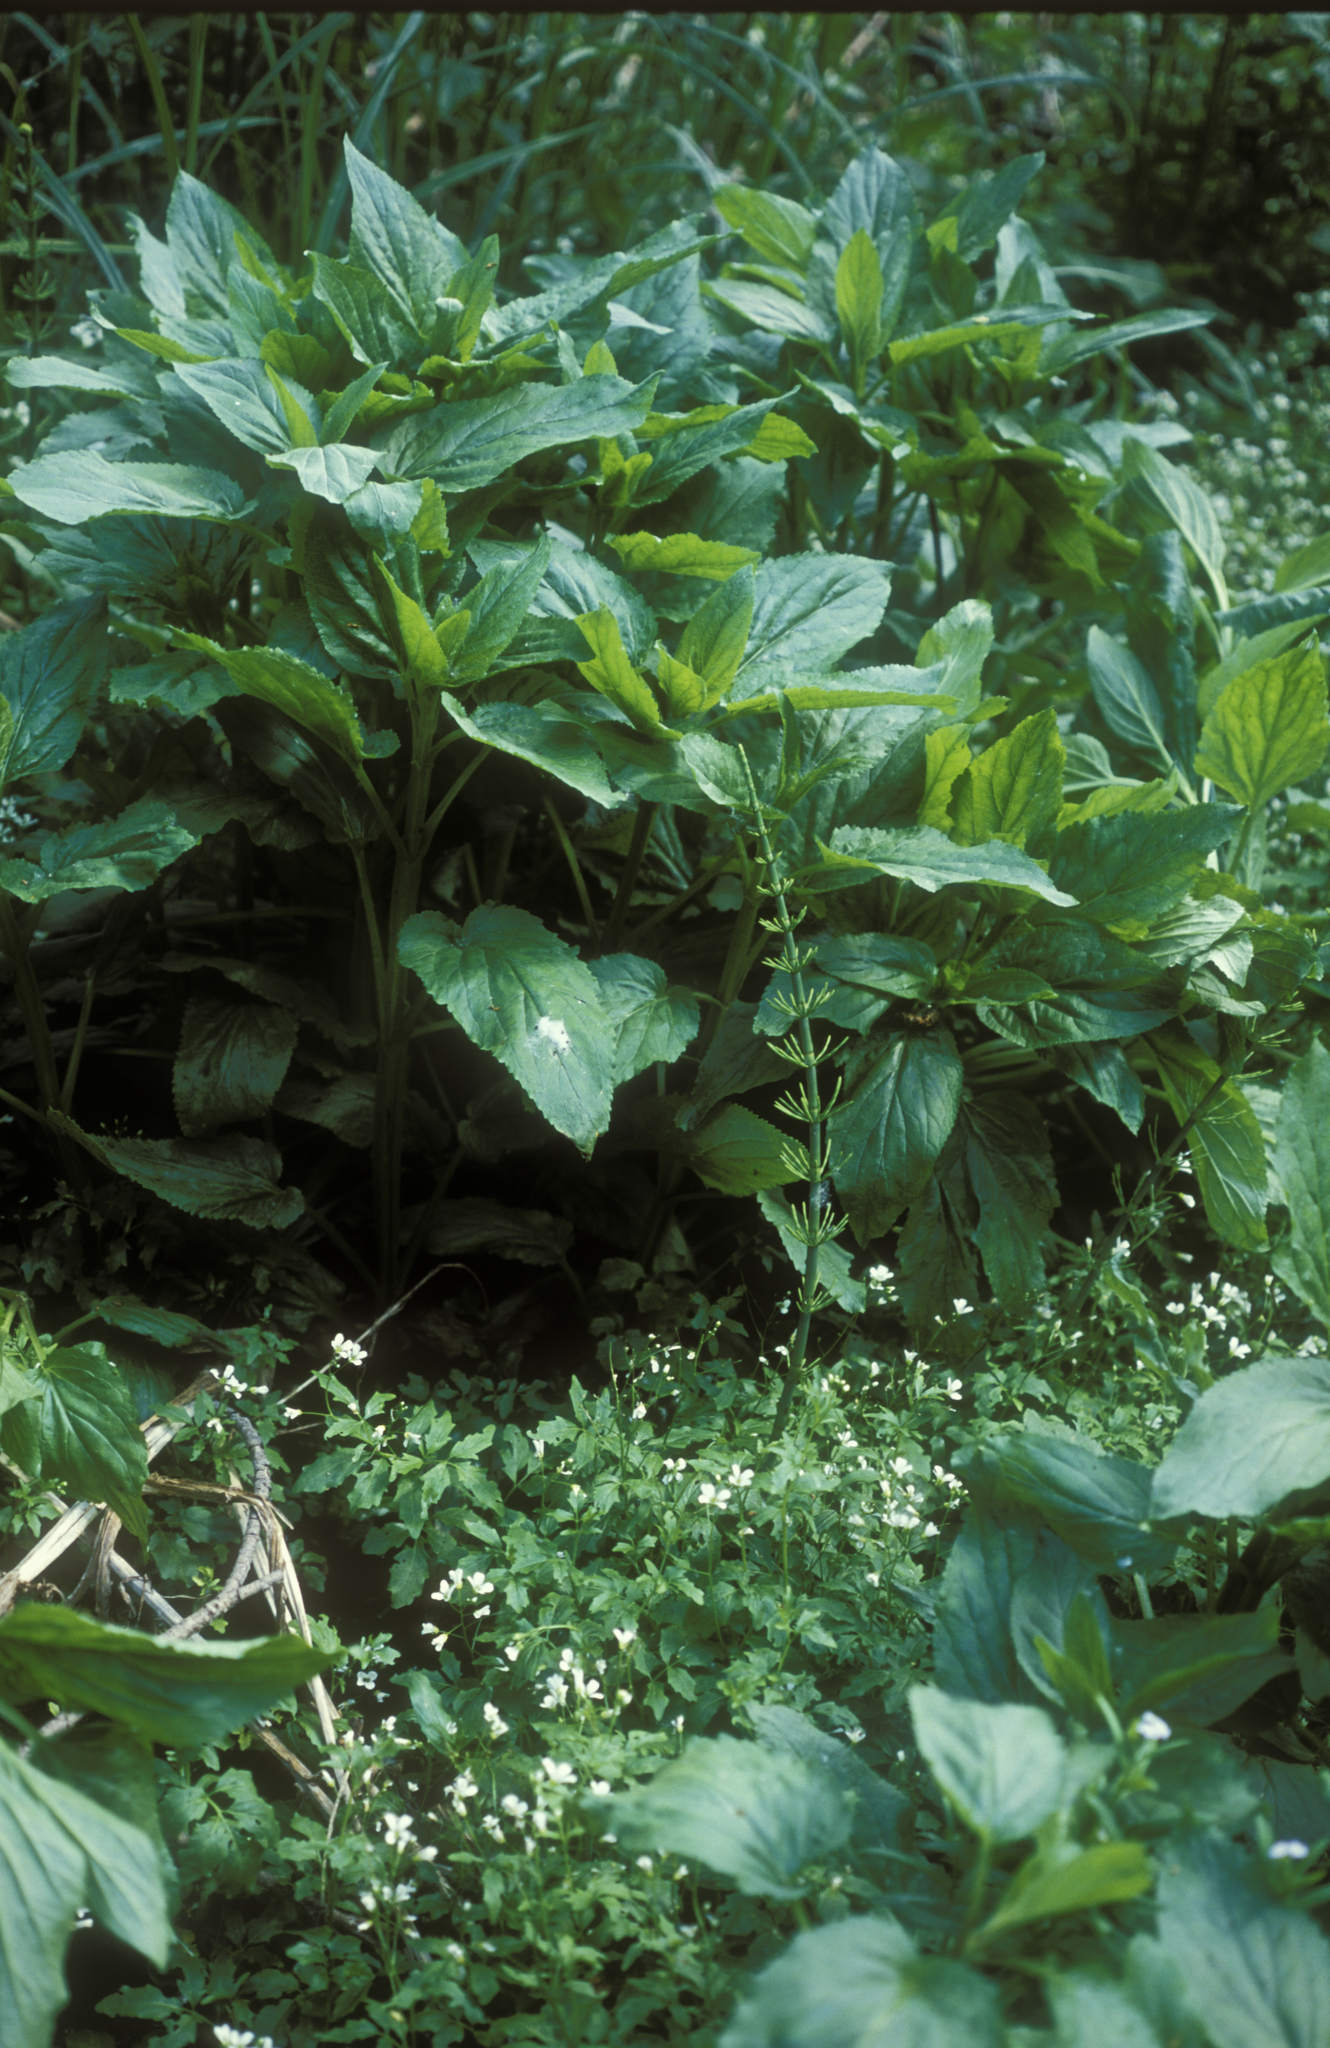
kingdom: Plantae
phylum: Tracheophyta
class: Magnoliopsida
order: Lamiales
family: Scrophulariaceae
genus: Scrophularia
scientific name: Scrophularia umbrosa
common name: Green figwort
